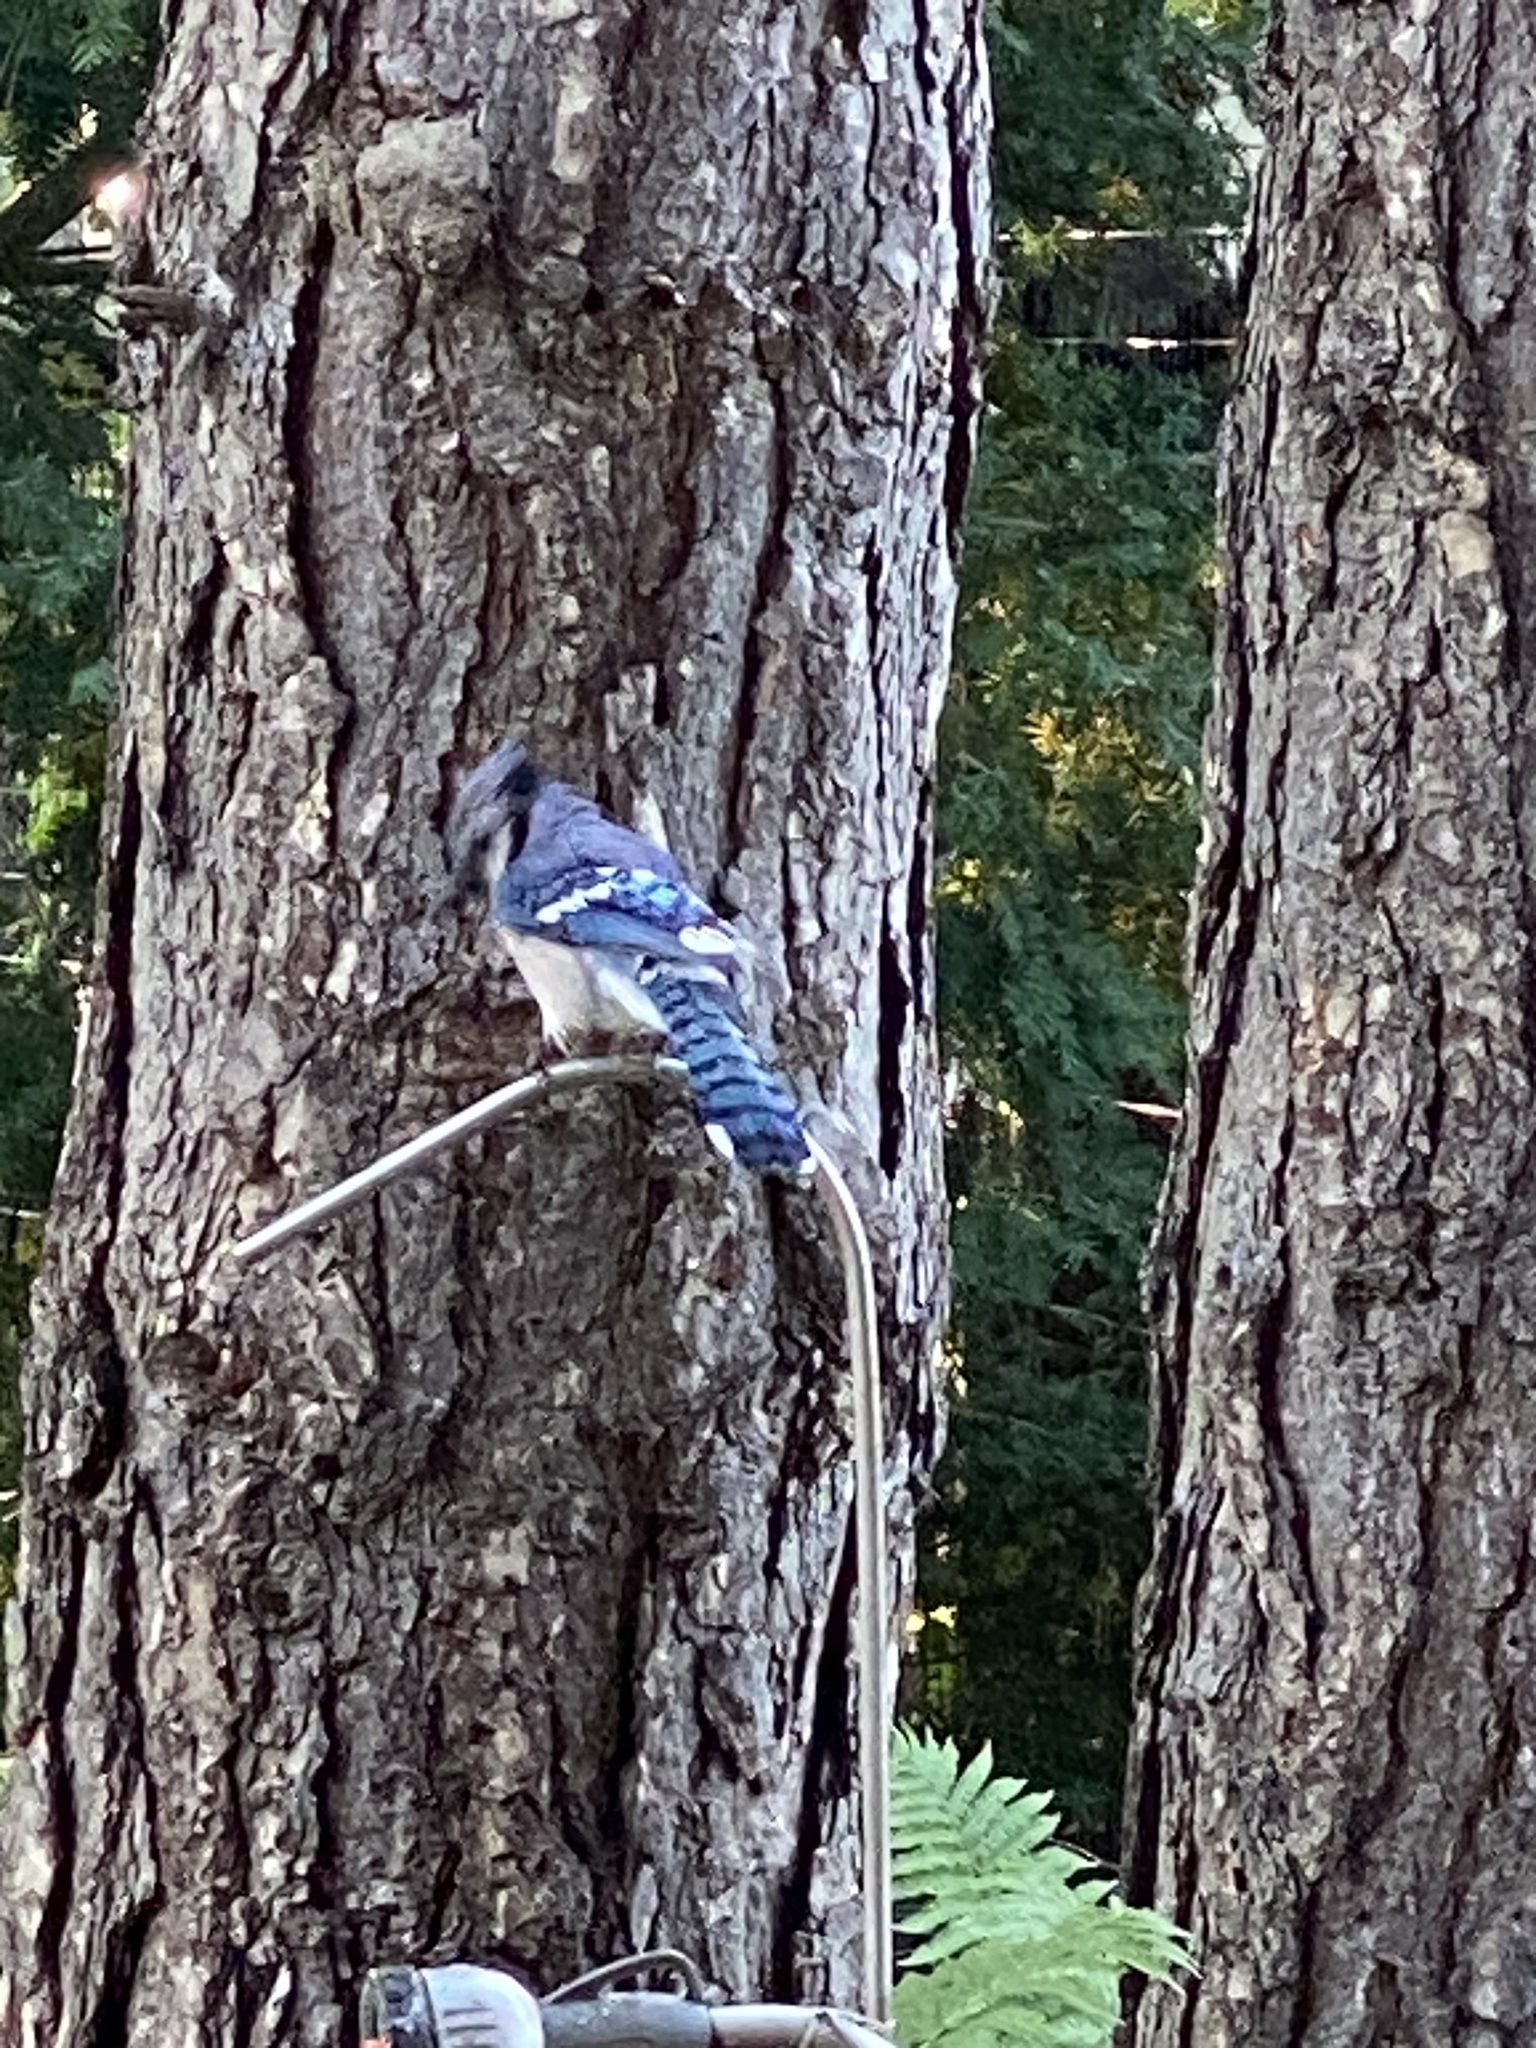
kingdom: Animalia
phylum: Chordata
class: Aves
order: Passeriformes
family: Corvidae
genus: Cyanocitta
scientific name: Cyanocitta cristata
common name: Blue jay
